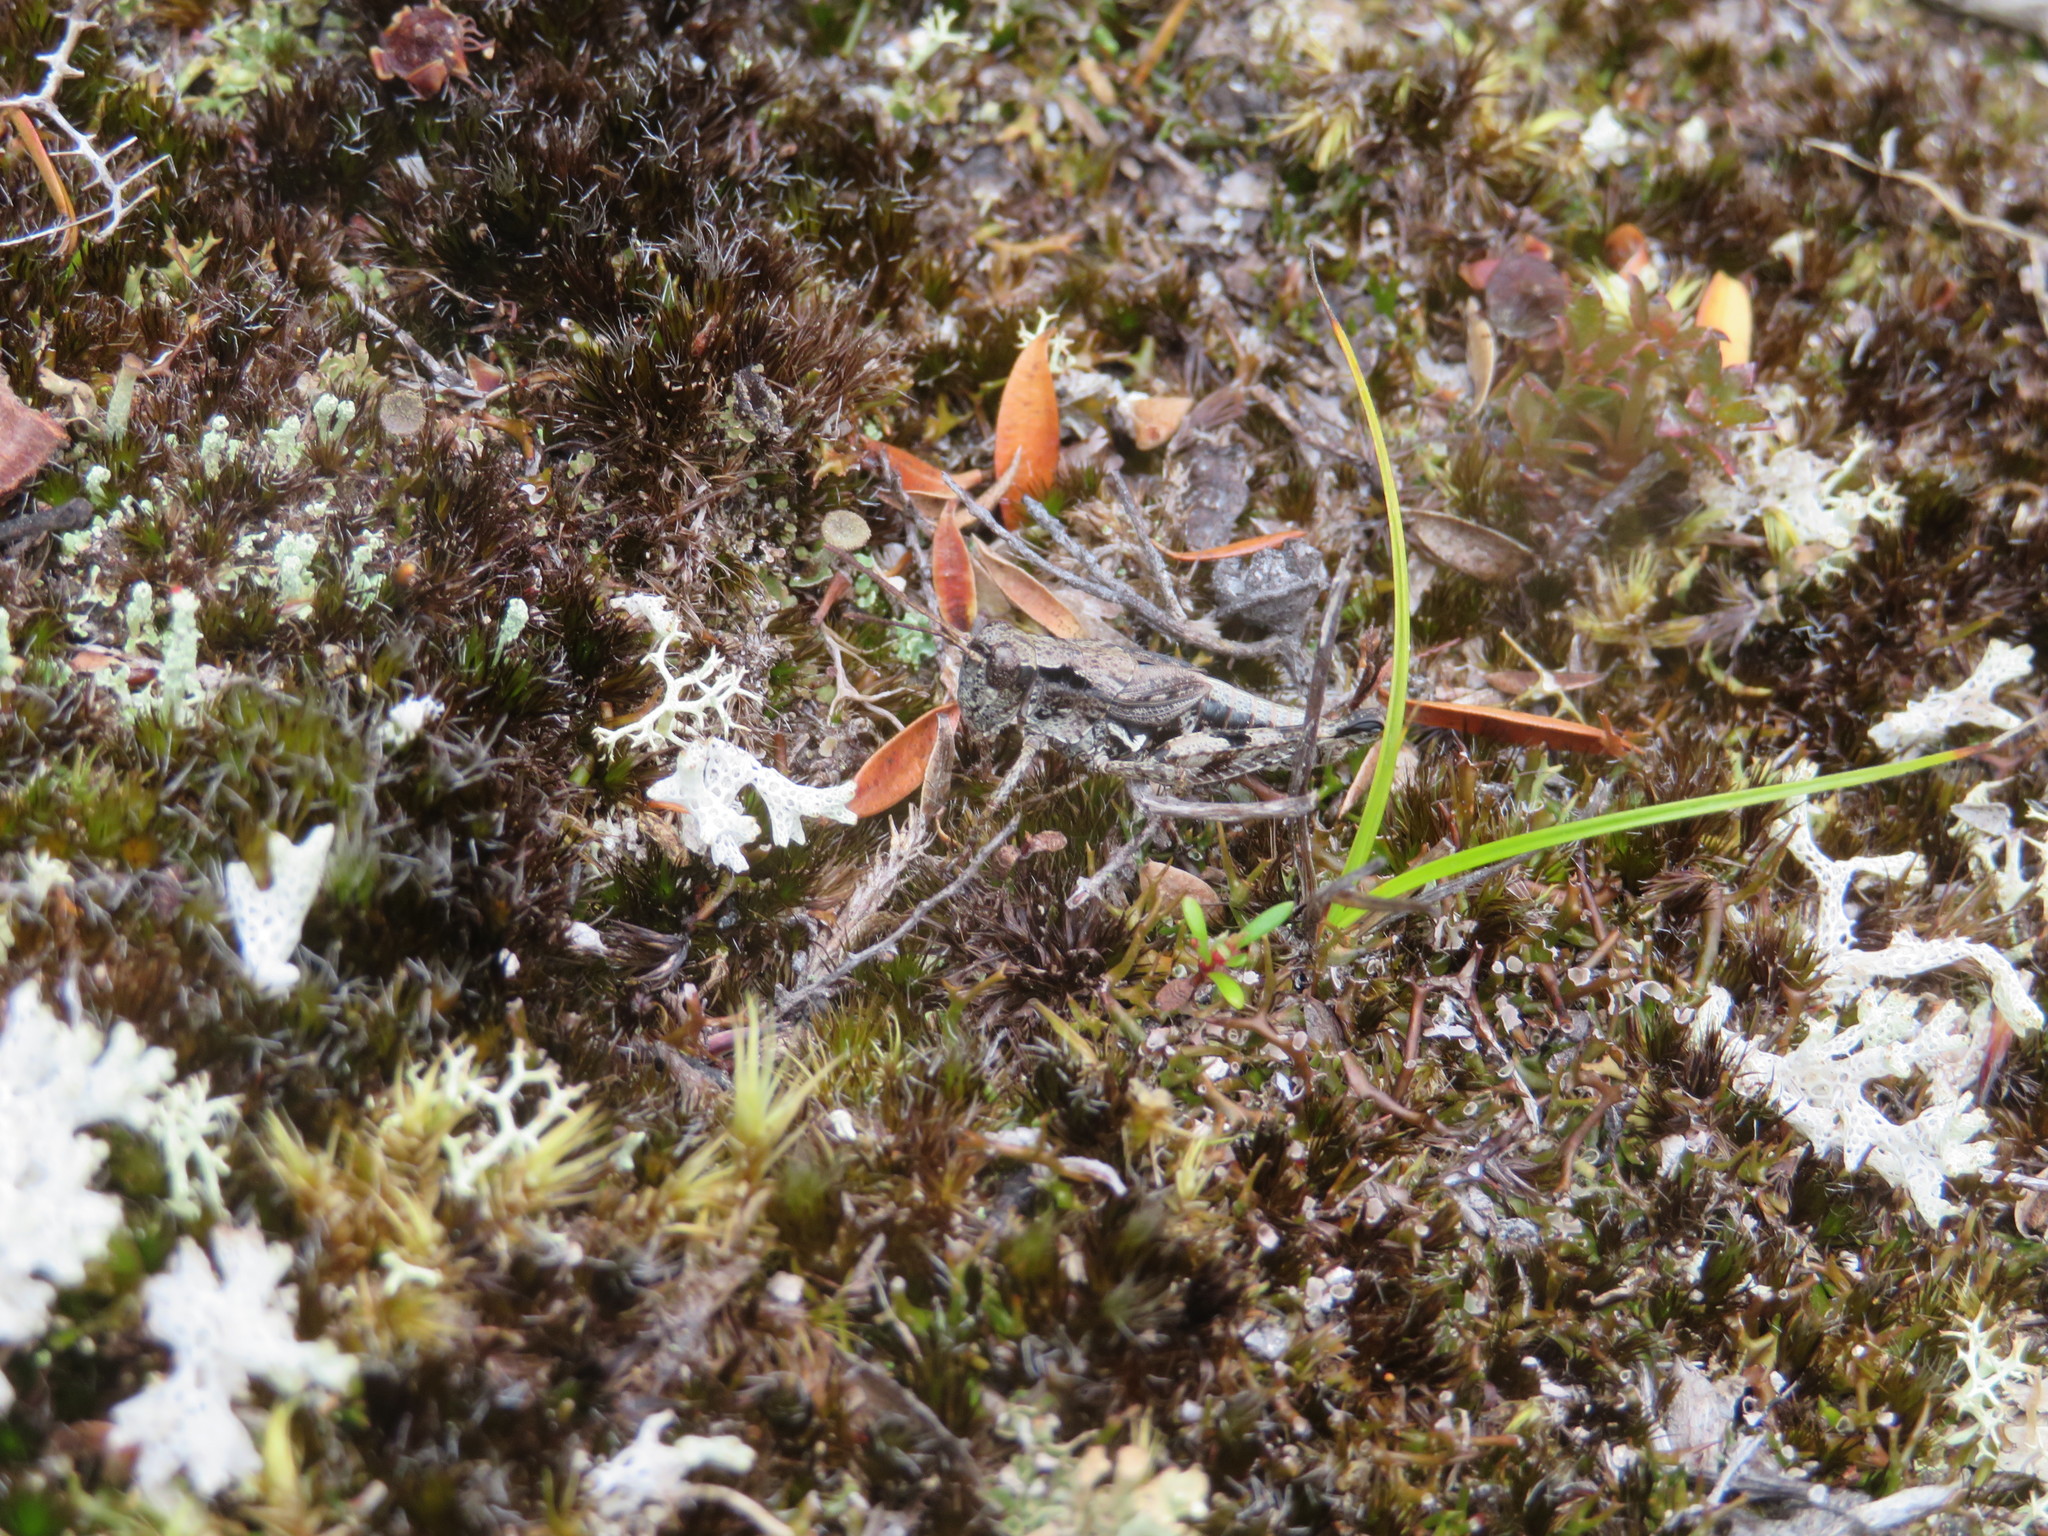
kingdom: Animalia
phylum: Arthropoda
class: Insecta
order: Orthoptera
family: Acrididae
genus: Phaulacridium
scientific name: Phaulacridium marginale
